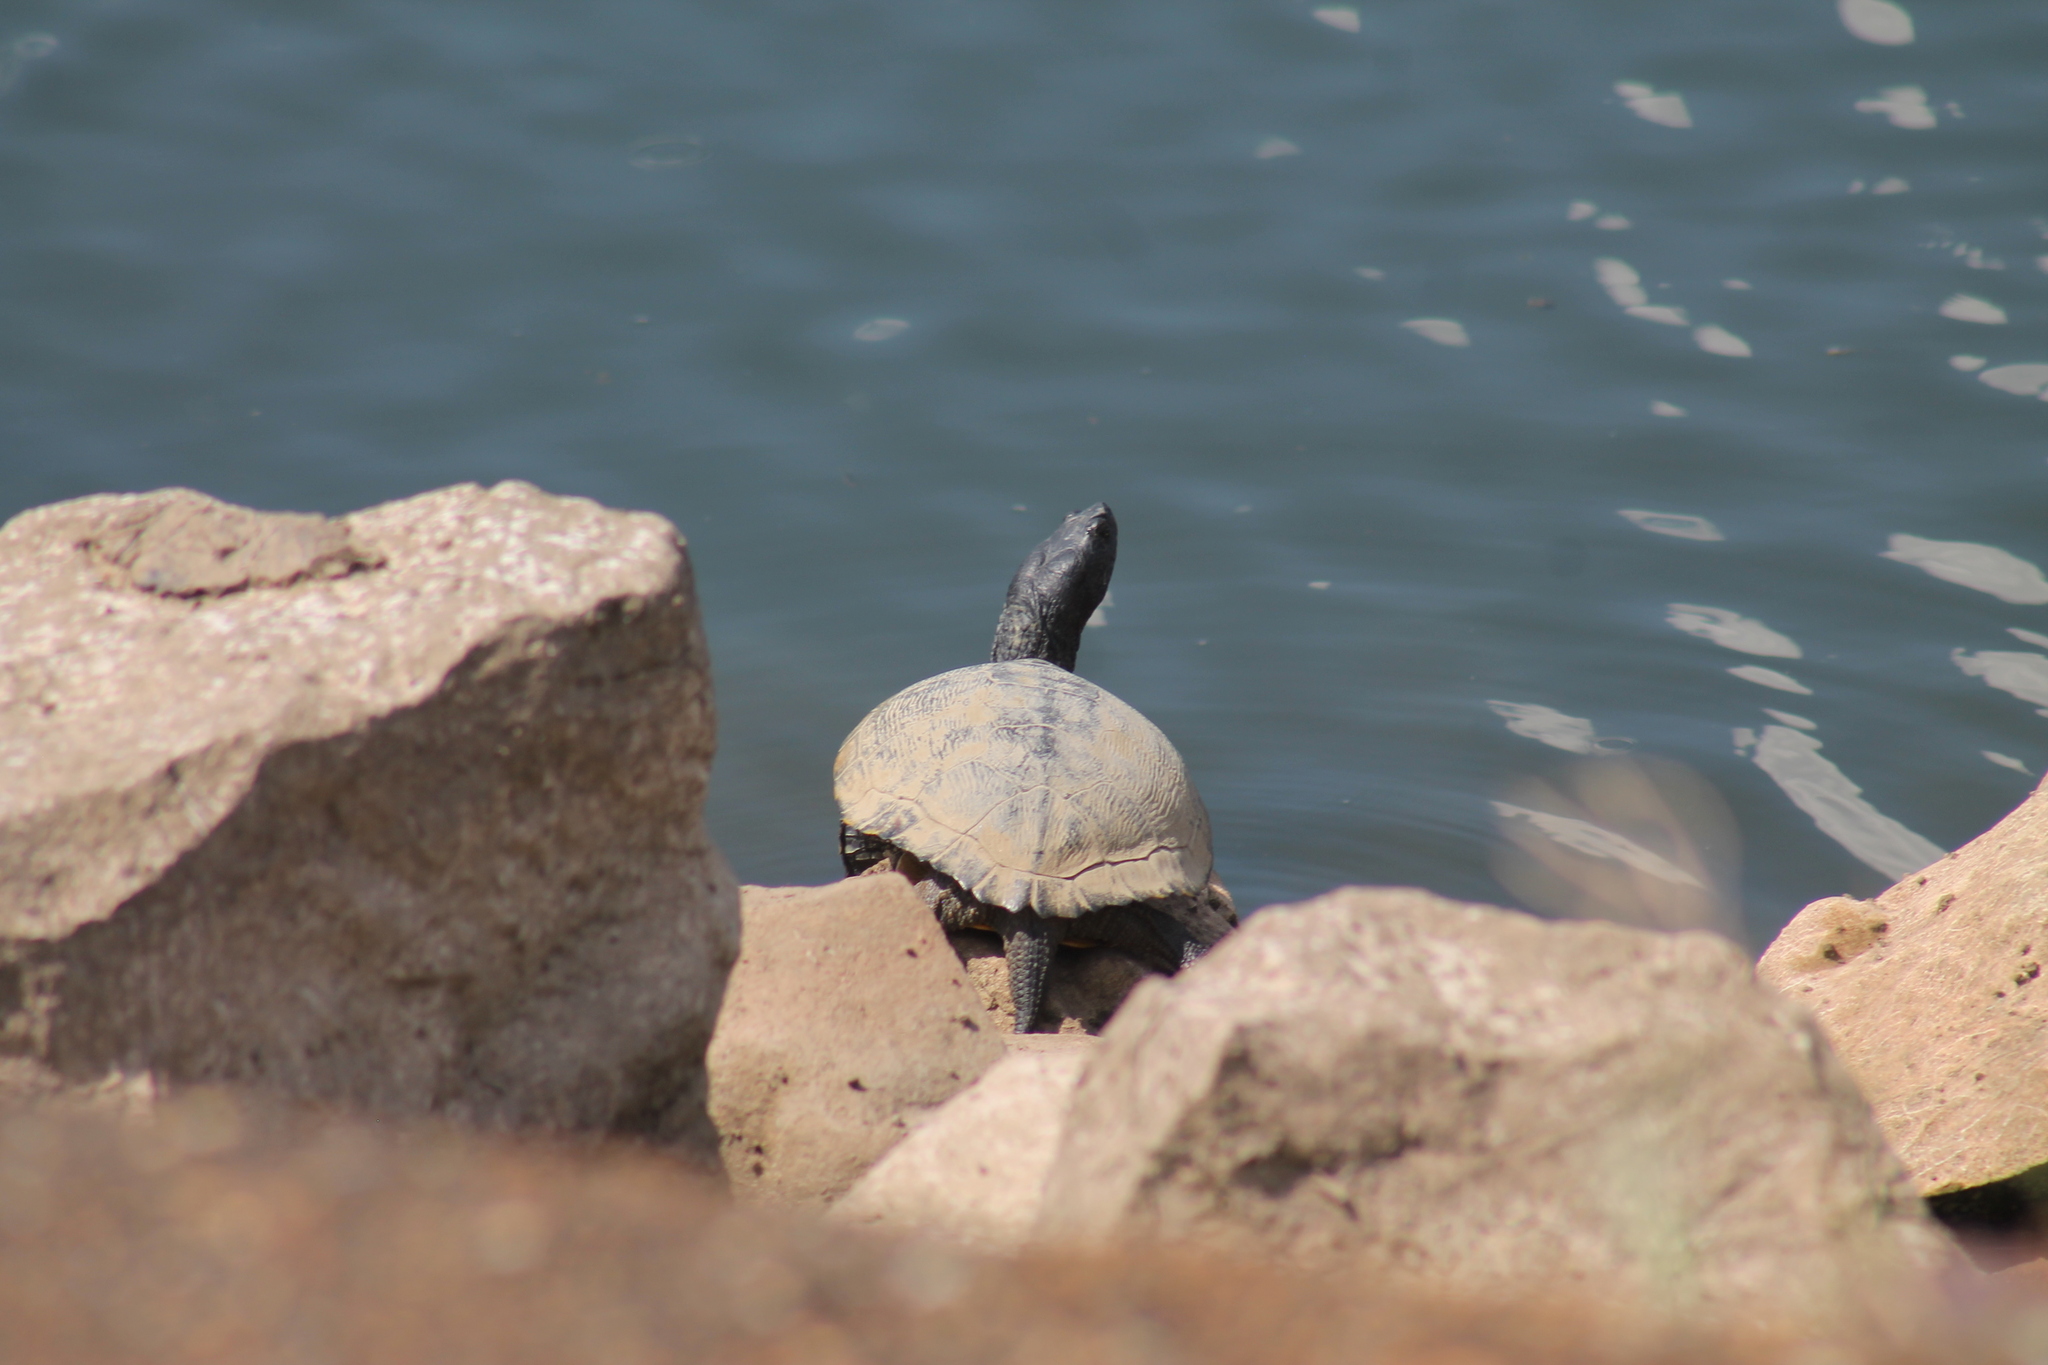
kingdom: Animalia
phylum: Chordata
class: Testudines
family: Emydidae
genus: Trachemys
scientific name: Trachemys scripta
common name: Slider
